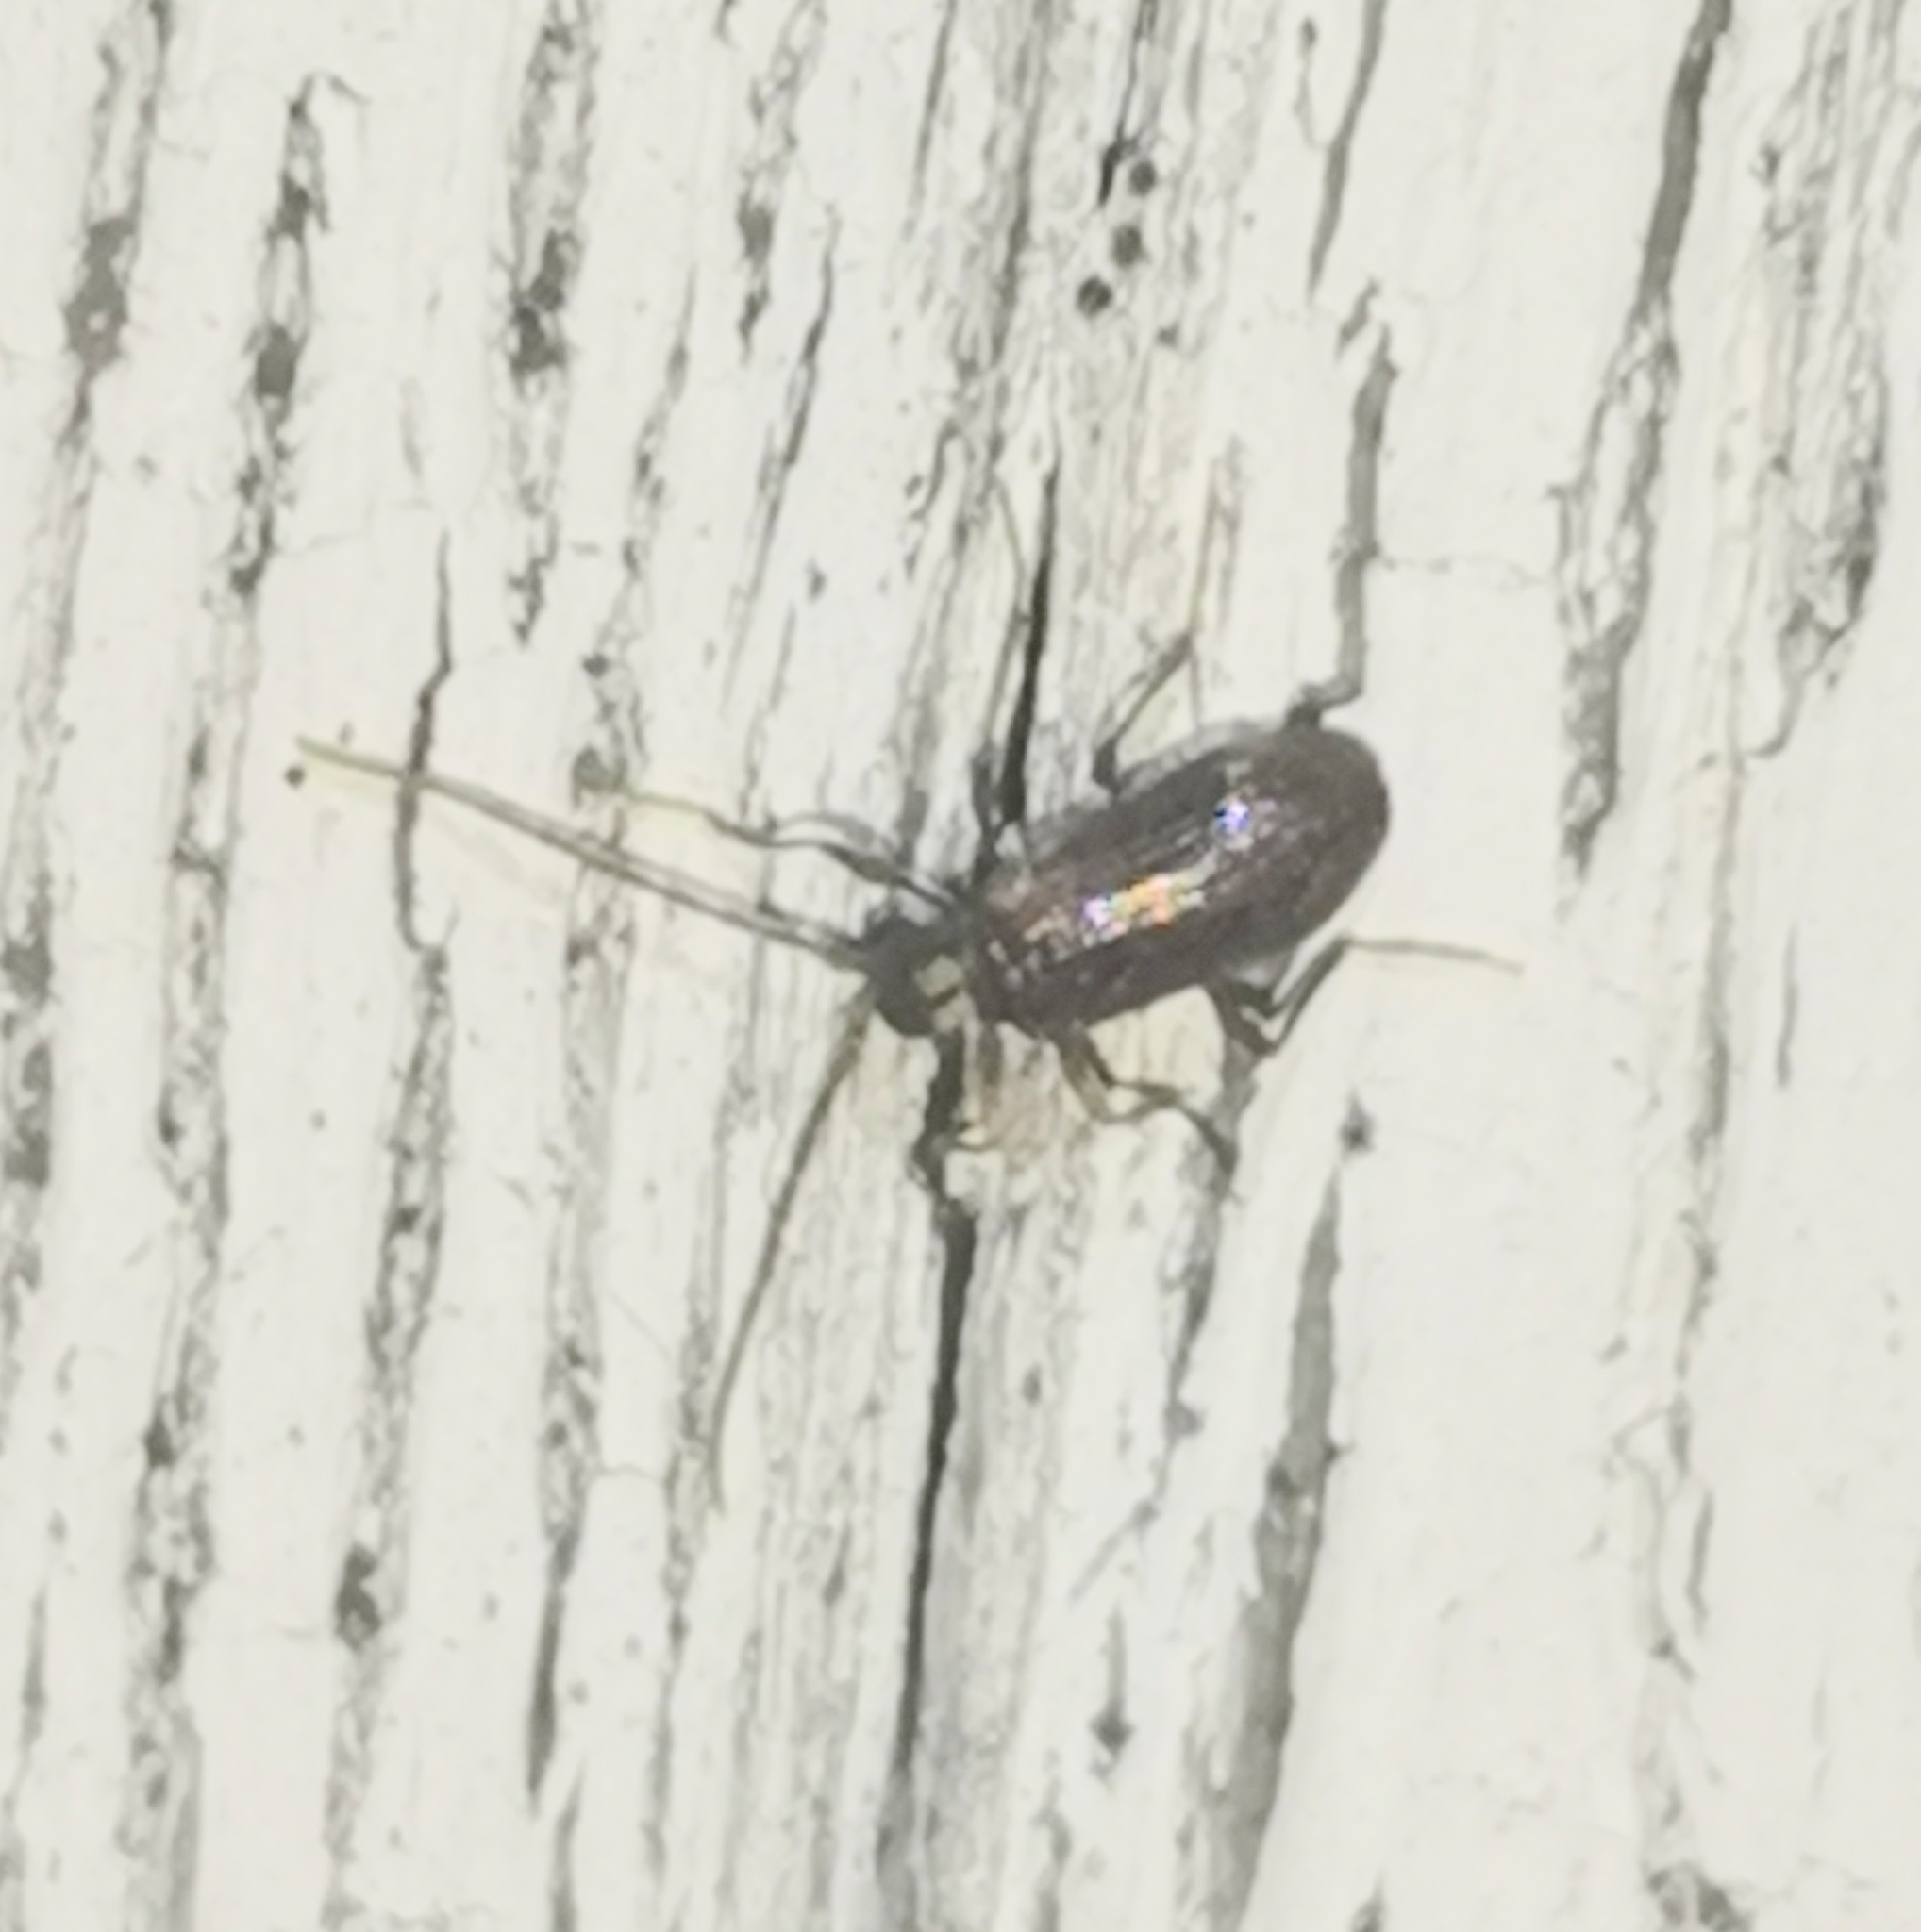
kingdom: Animalia
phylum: Arthropoda
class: Insecta
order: Coleoptera
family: Ptinidae
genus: Ptinus
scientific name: Ptinus raptor
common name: Eastern spider beetle
